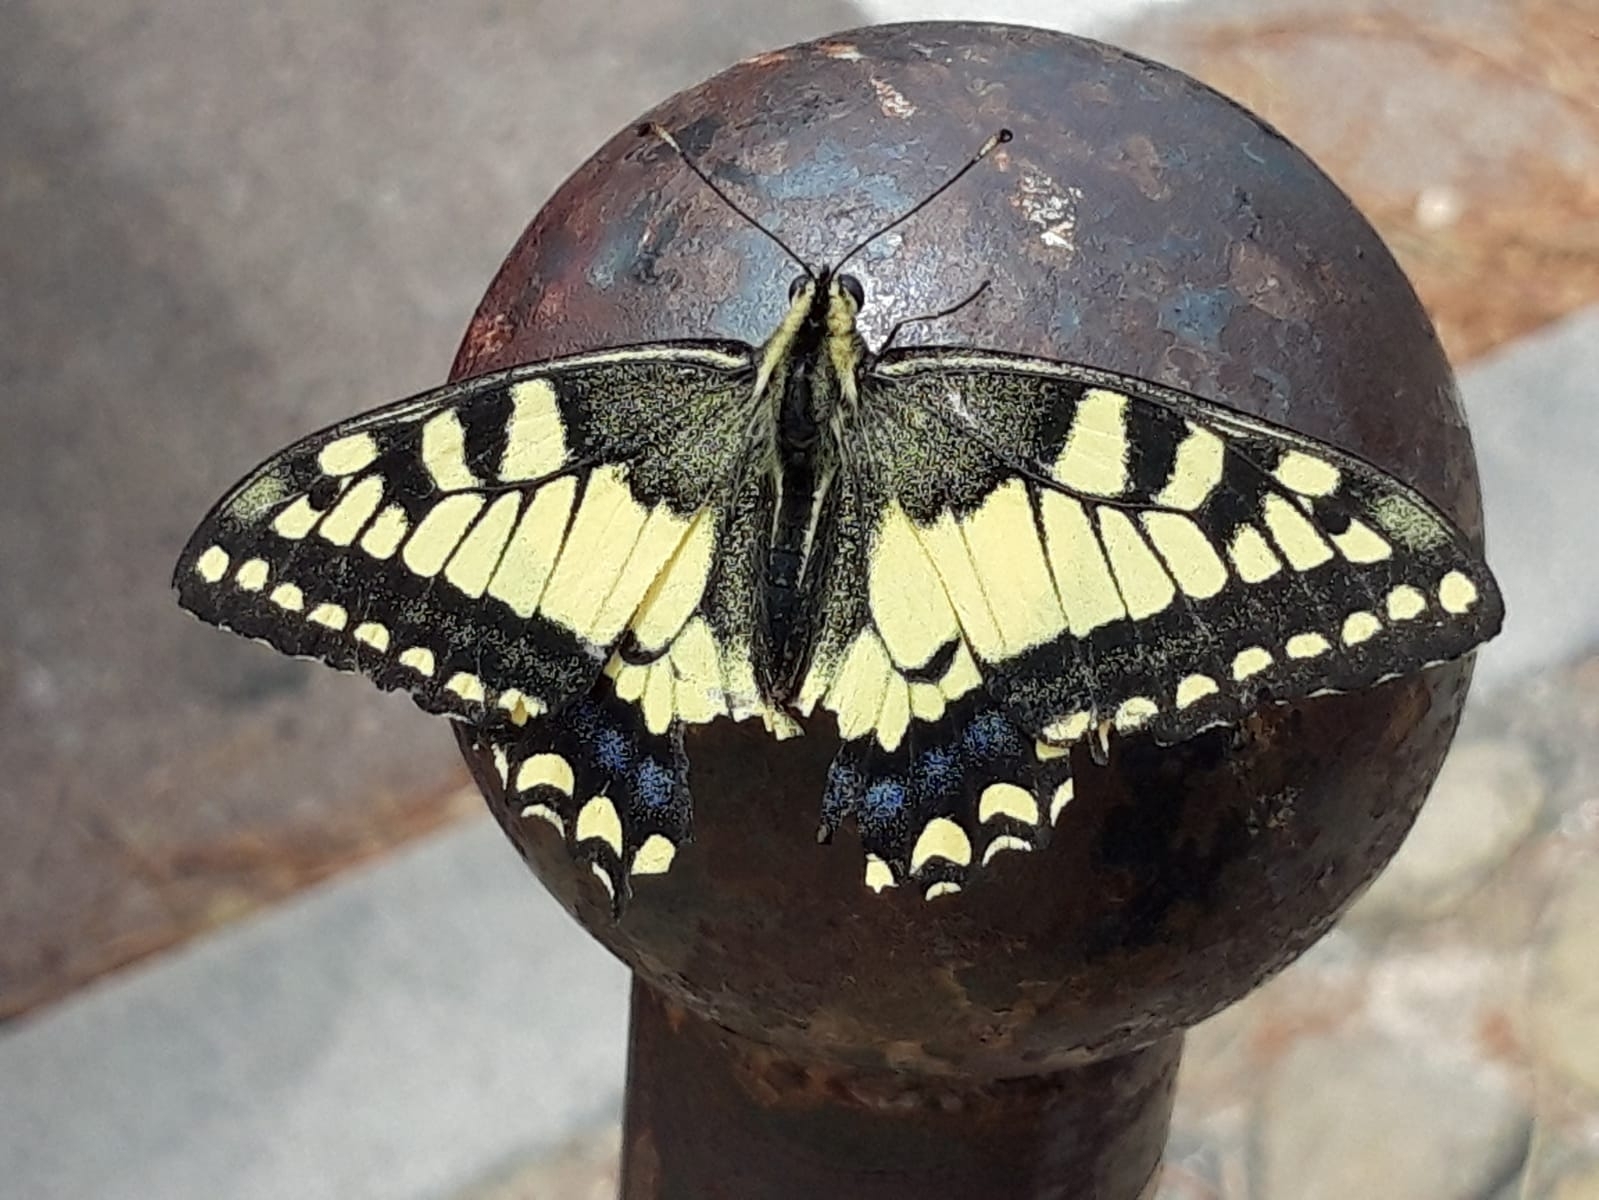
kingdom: Animalia
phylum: Arthropoda
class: Insecta
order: Lepidoptera
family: Papilionidae
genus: Papilio
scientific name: Papilio machaon
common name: Swallowtail
